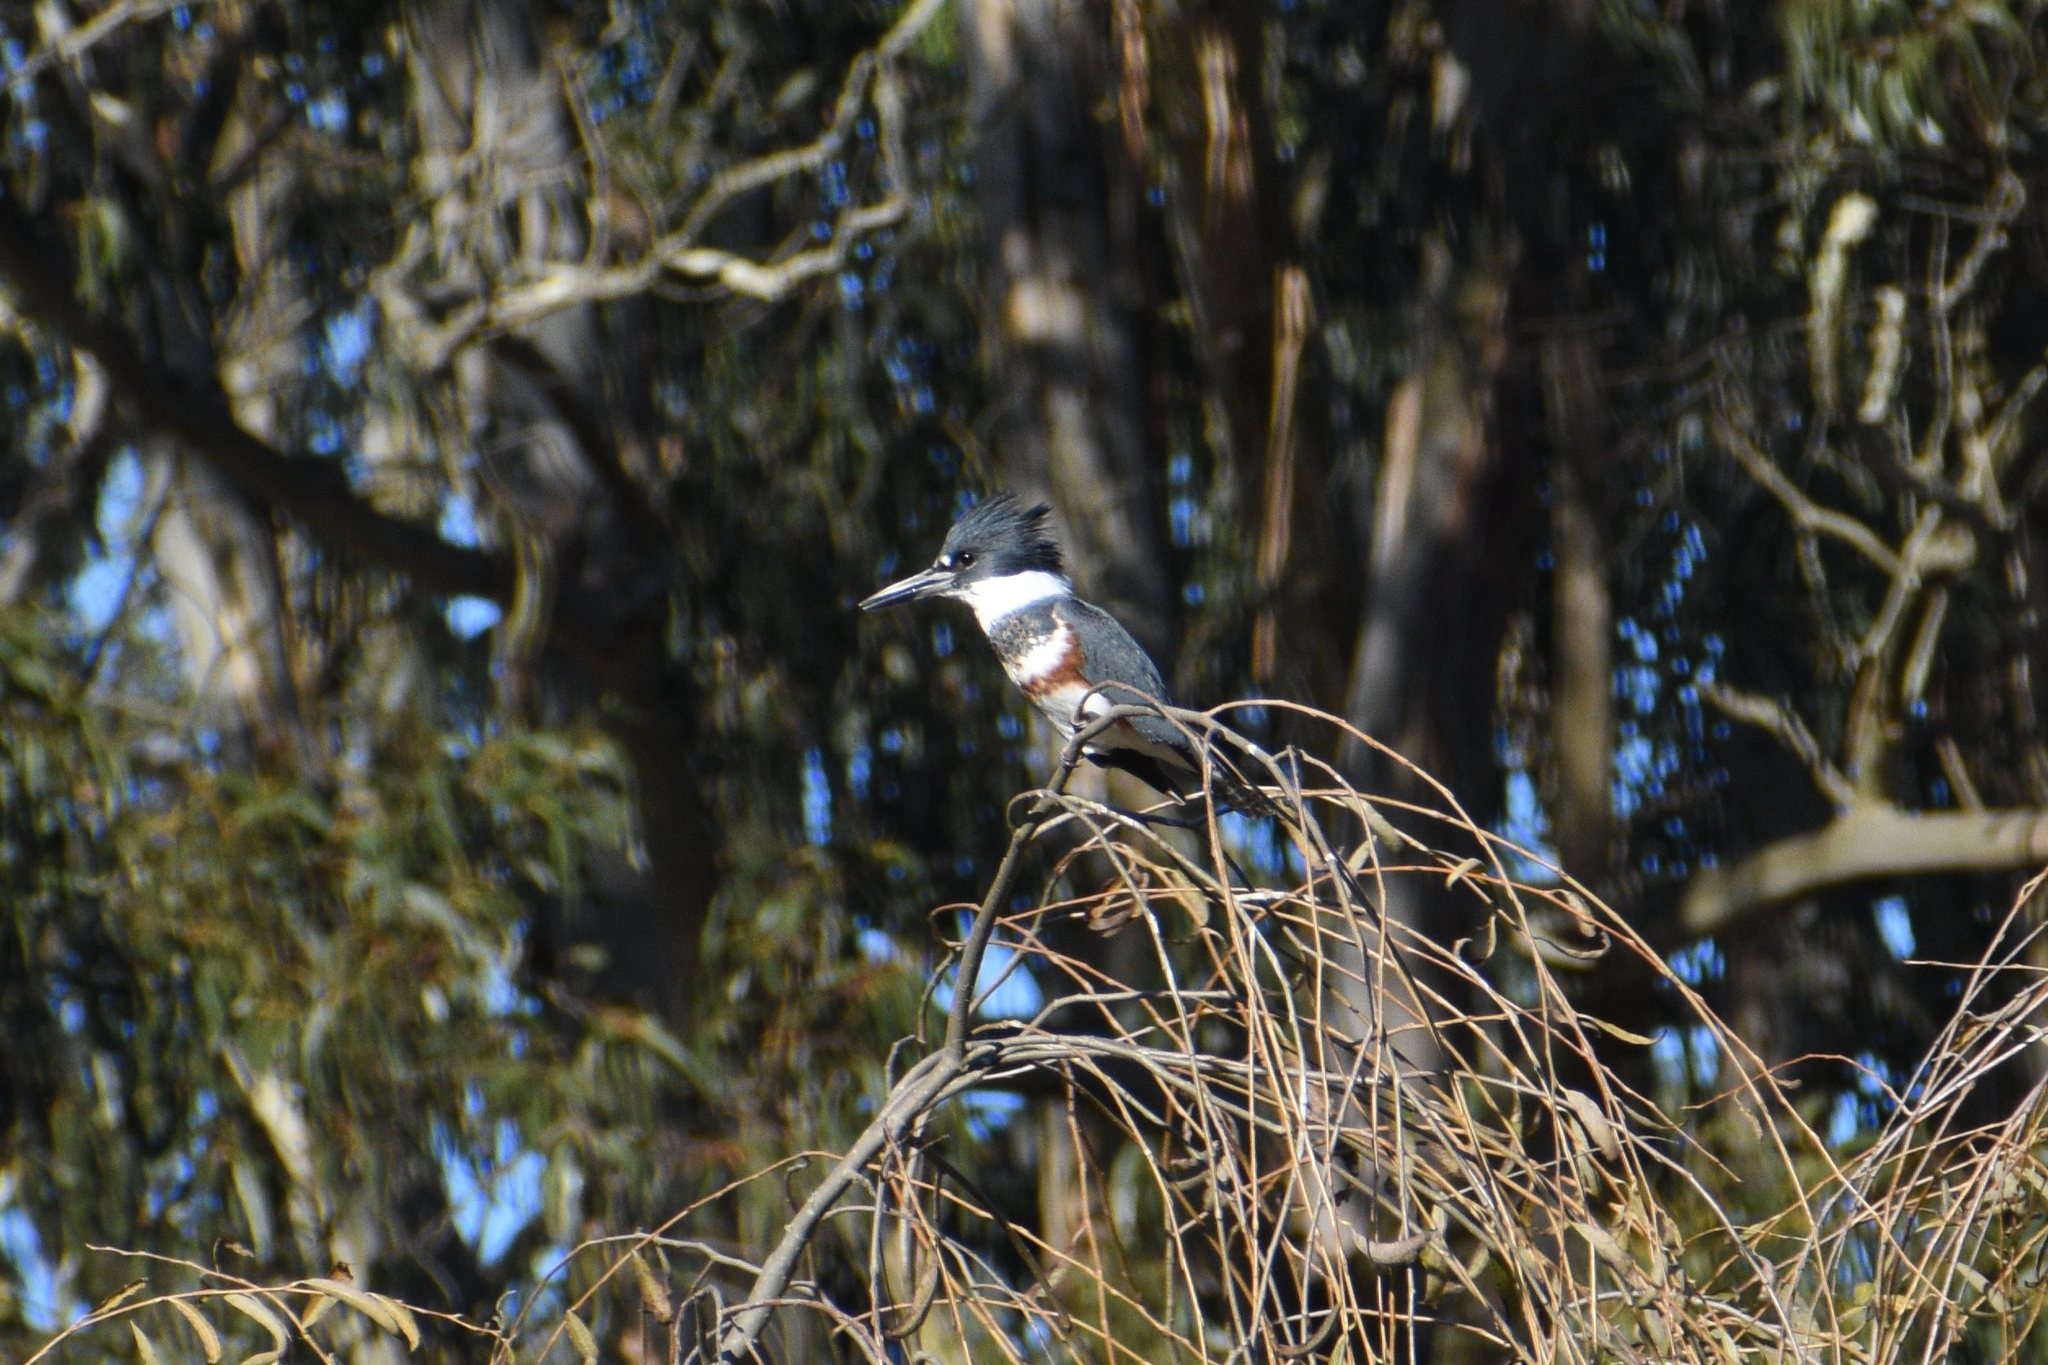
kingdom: Animalia
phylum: Chordata
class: Aves
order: Coraciiformes
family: Alcedinidae
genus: Megaceryle
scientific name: Megaceryle alcyon
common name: Belted kingfisher
